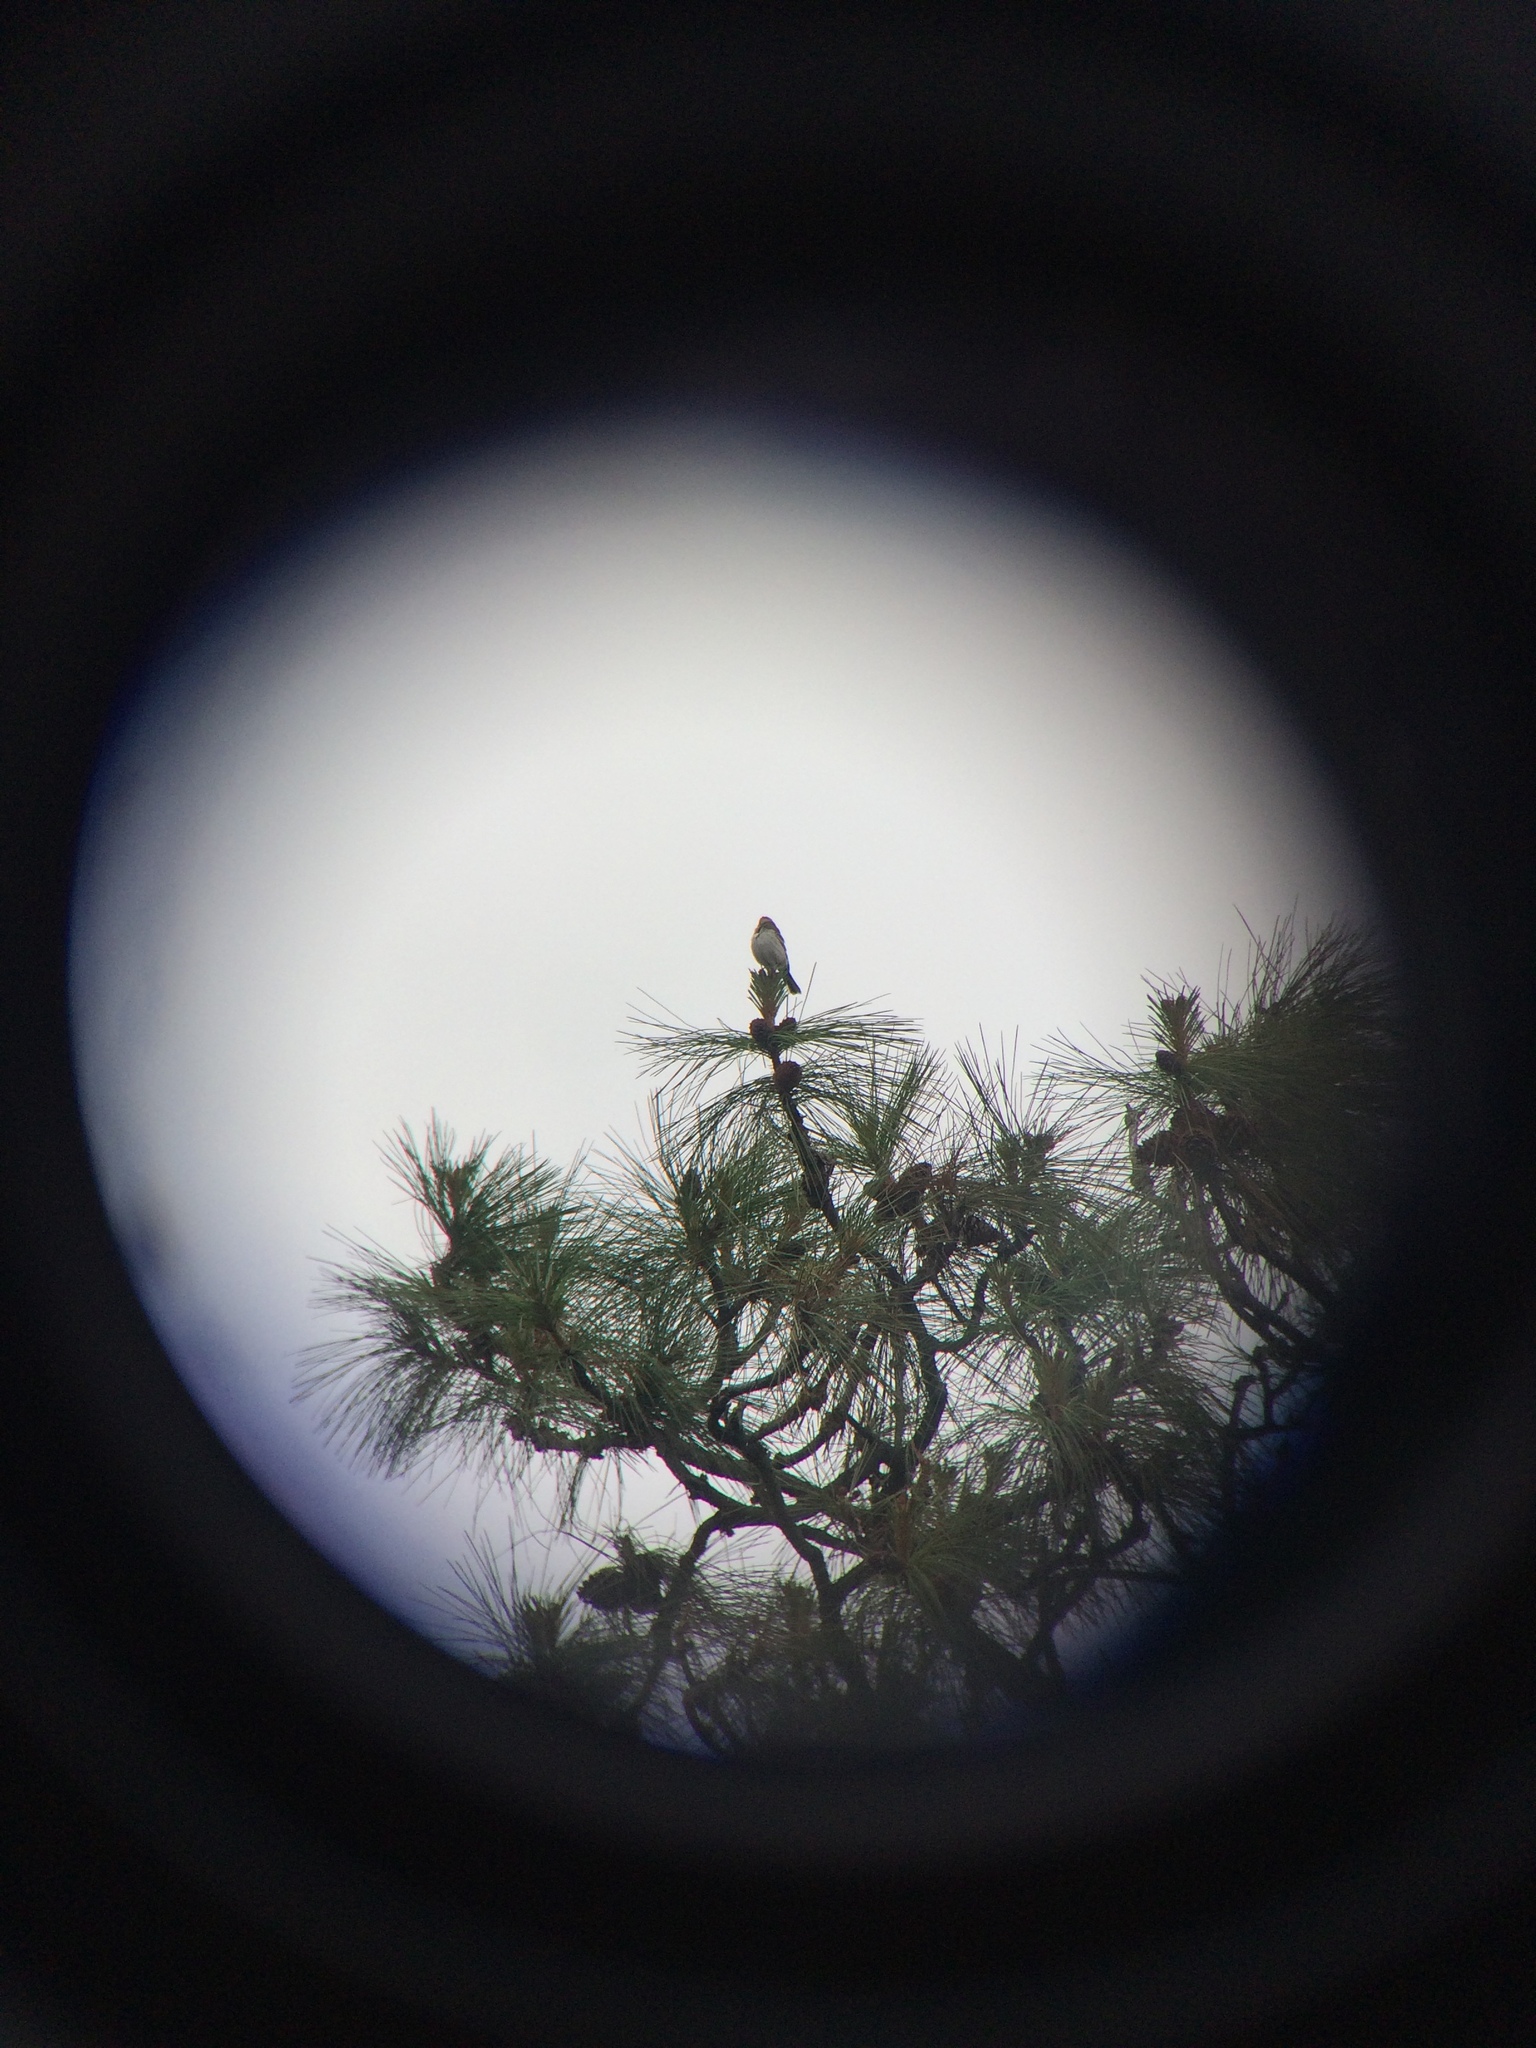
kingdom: Animalia
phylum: Chordata
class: Aves
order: Passeriformes
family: Passerellidae
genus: Chondestes
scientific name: Chondestes grammacus
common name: Lark sparrow
